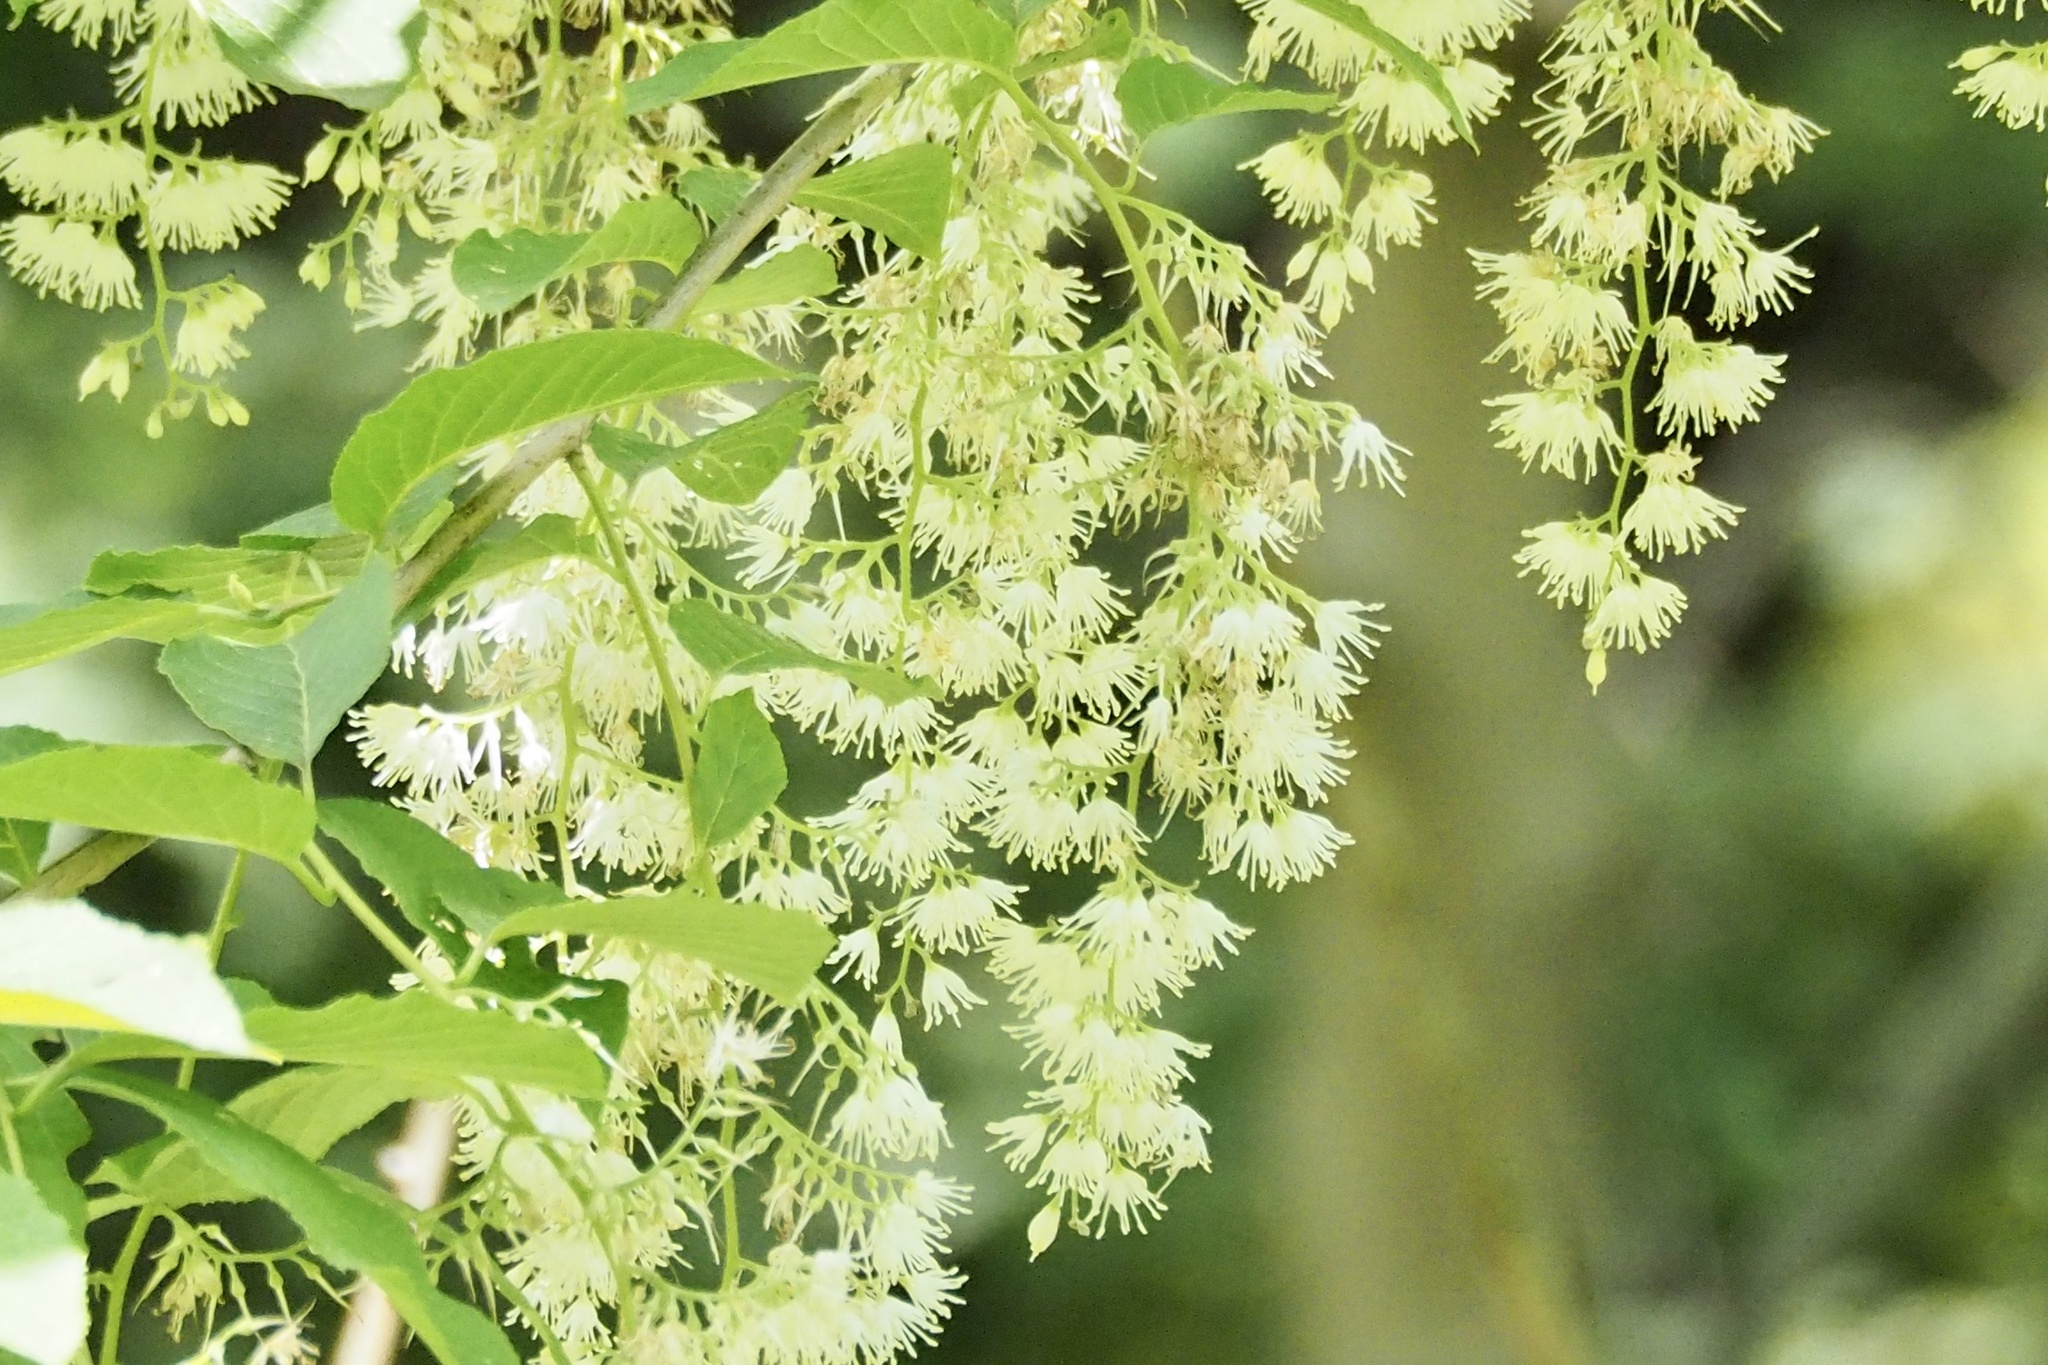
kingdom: Plantae
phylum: Tracheophyta
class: Magnoliopsida
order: Ericales
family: Styracaceae
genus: Pterostyrax
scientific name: Pterostyrax hispidus
